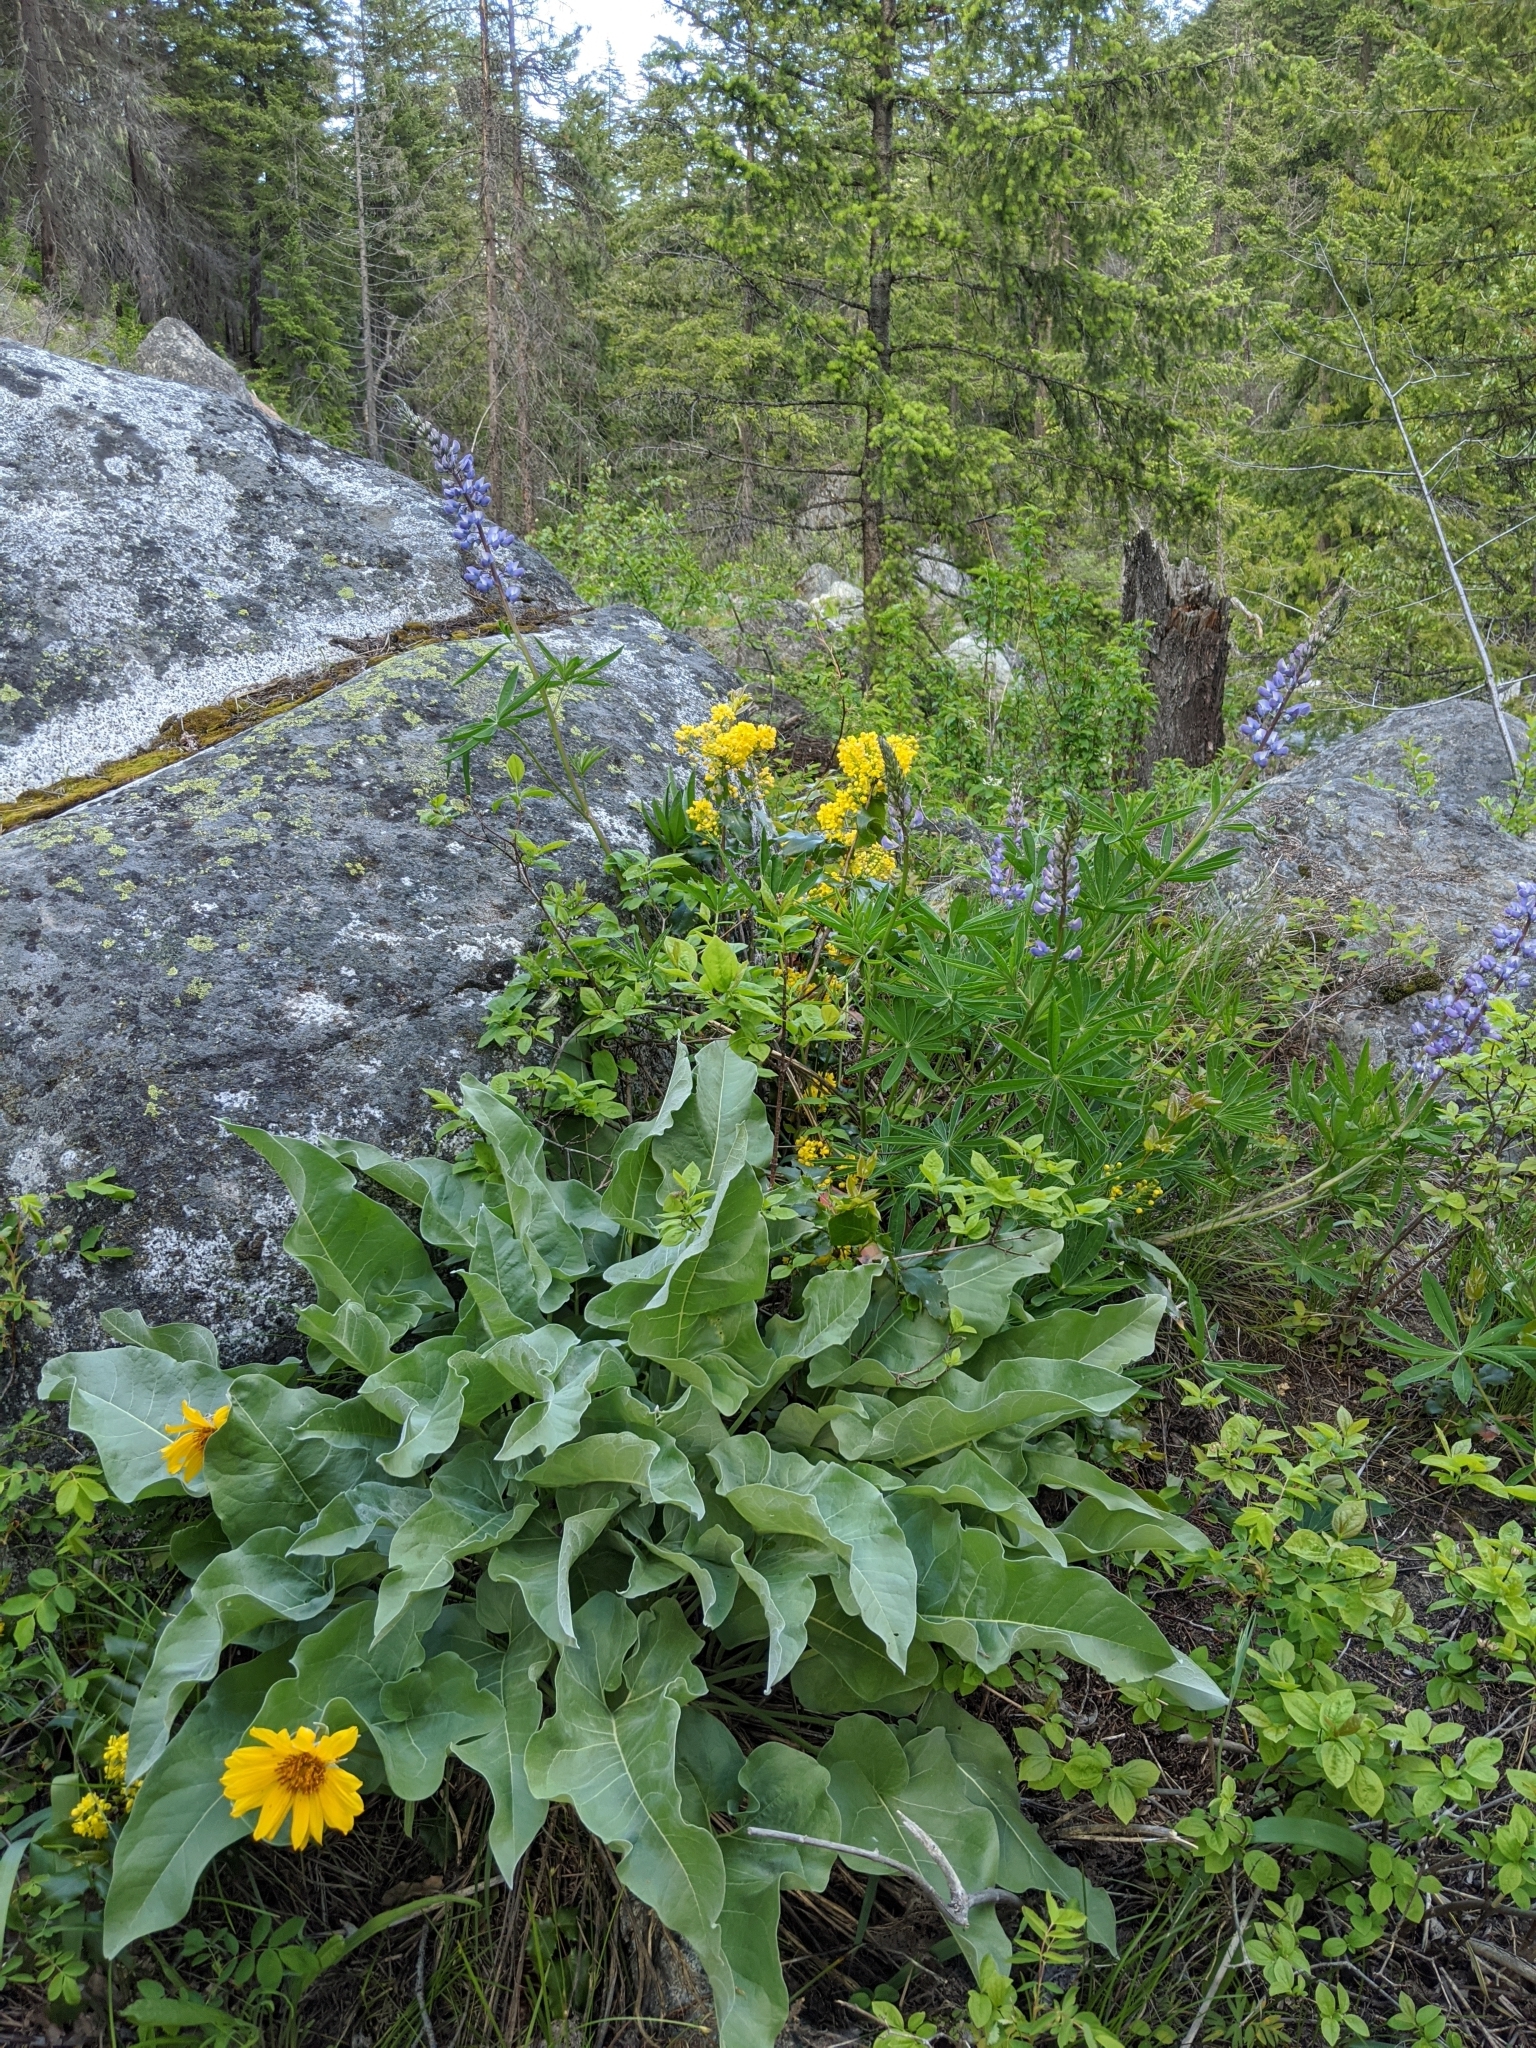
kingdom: Plantae
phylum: Tracheophyta
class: Magnoliopsida
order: Asterales
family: Asteraceae
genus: Wyethia
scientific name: Wyethia sagittata
